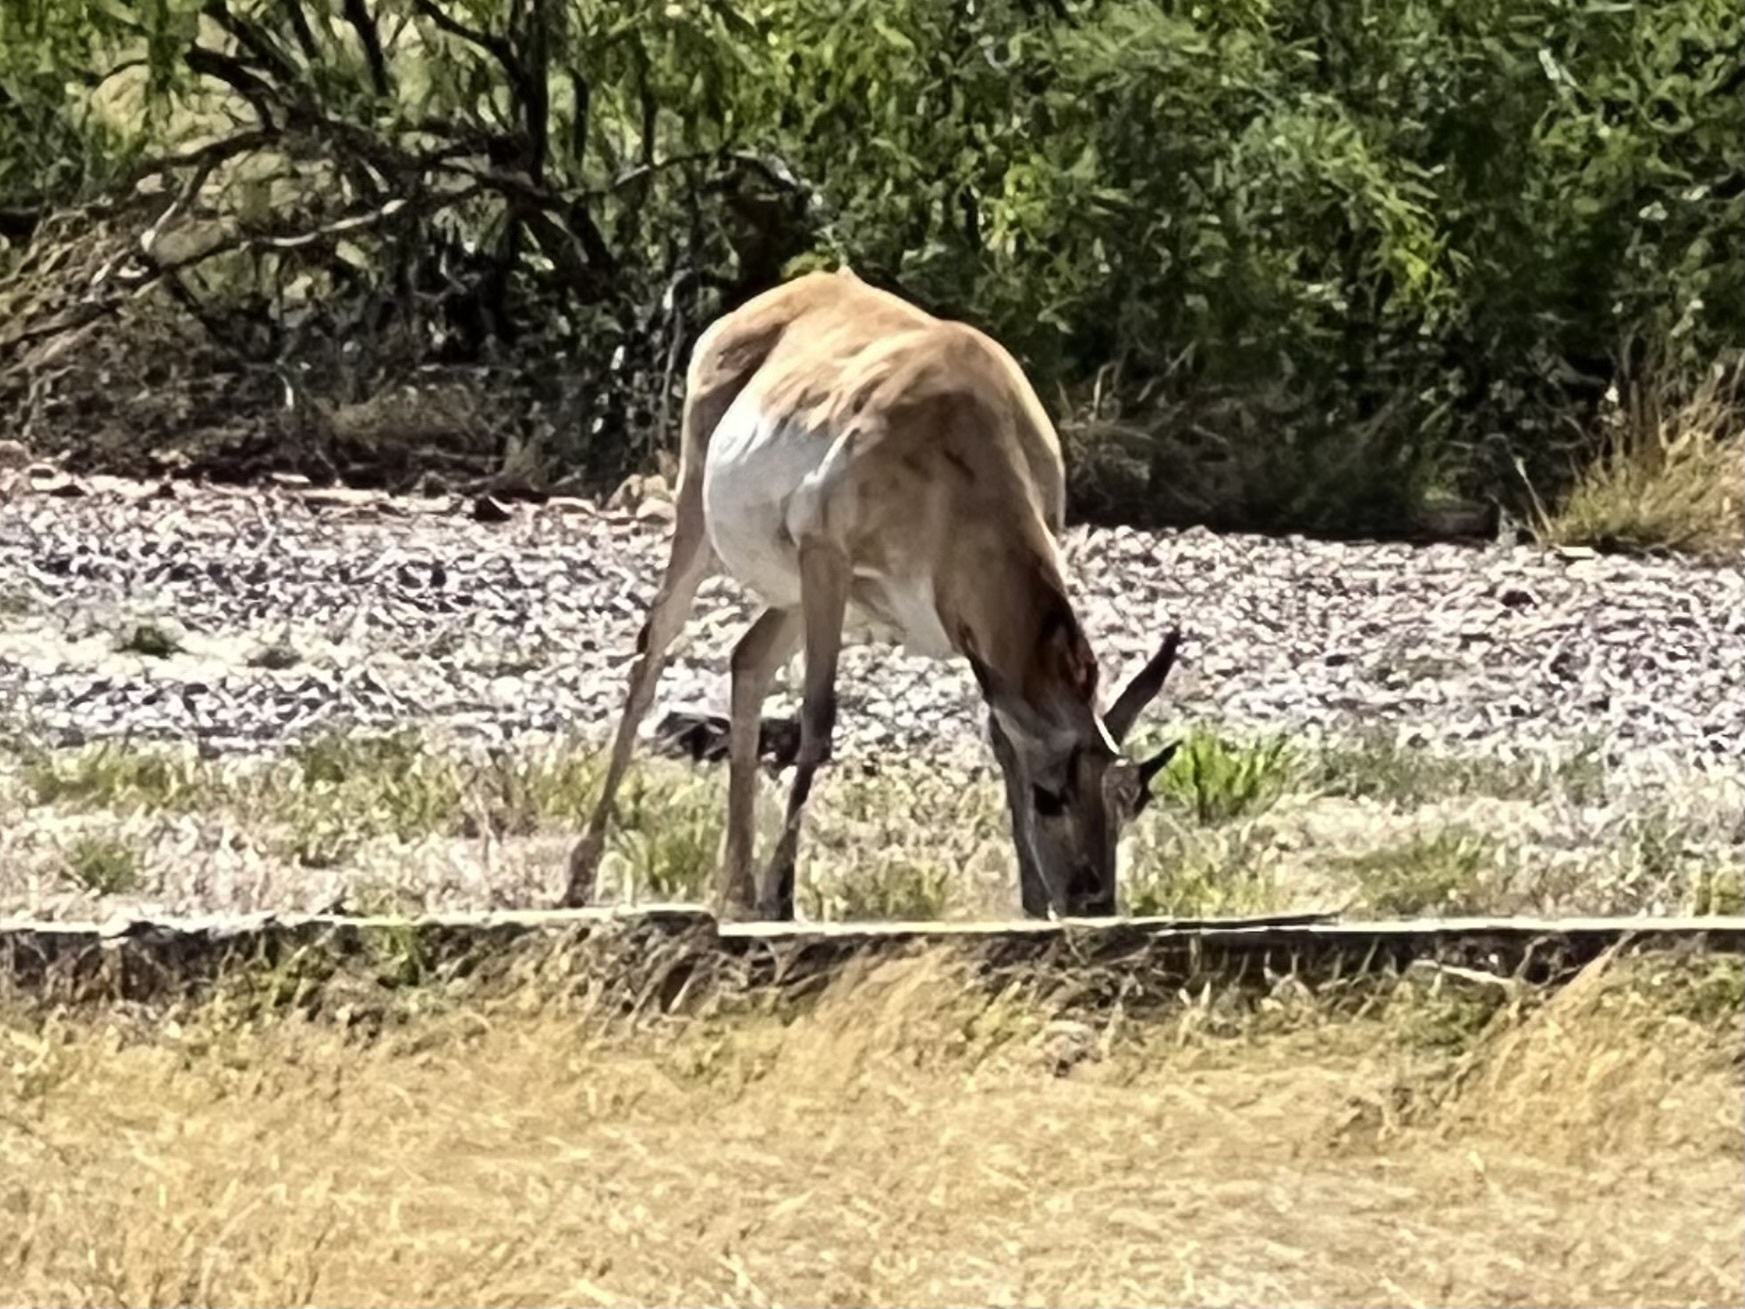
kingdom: Animalia
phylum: Chordata
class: Mammalia
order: Artiodactyla
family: Antilocapridae
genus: Antilocapra
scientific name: Antilocapra americana
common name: Pronghorn
